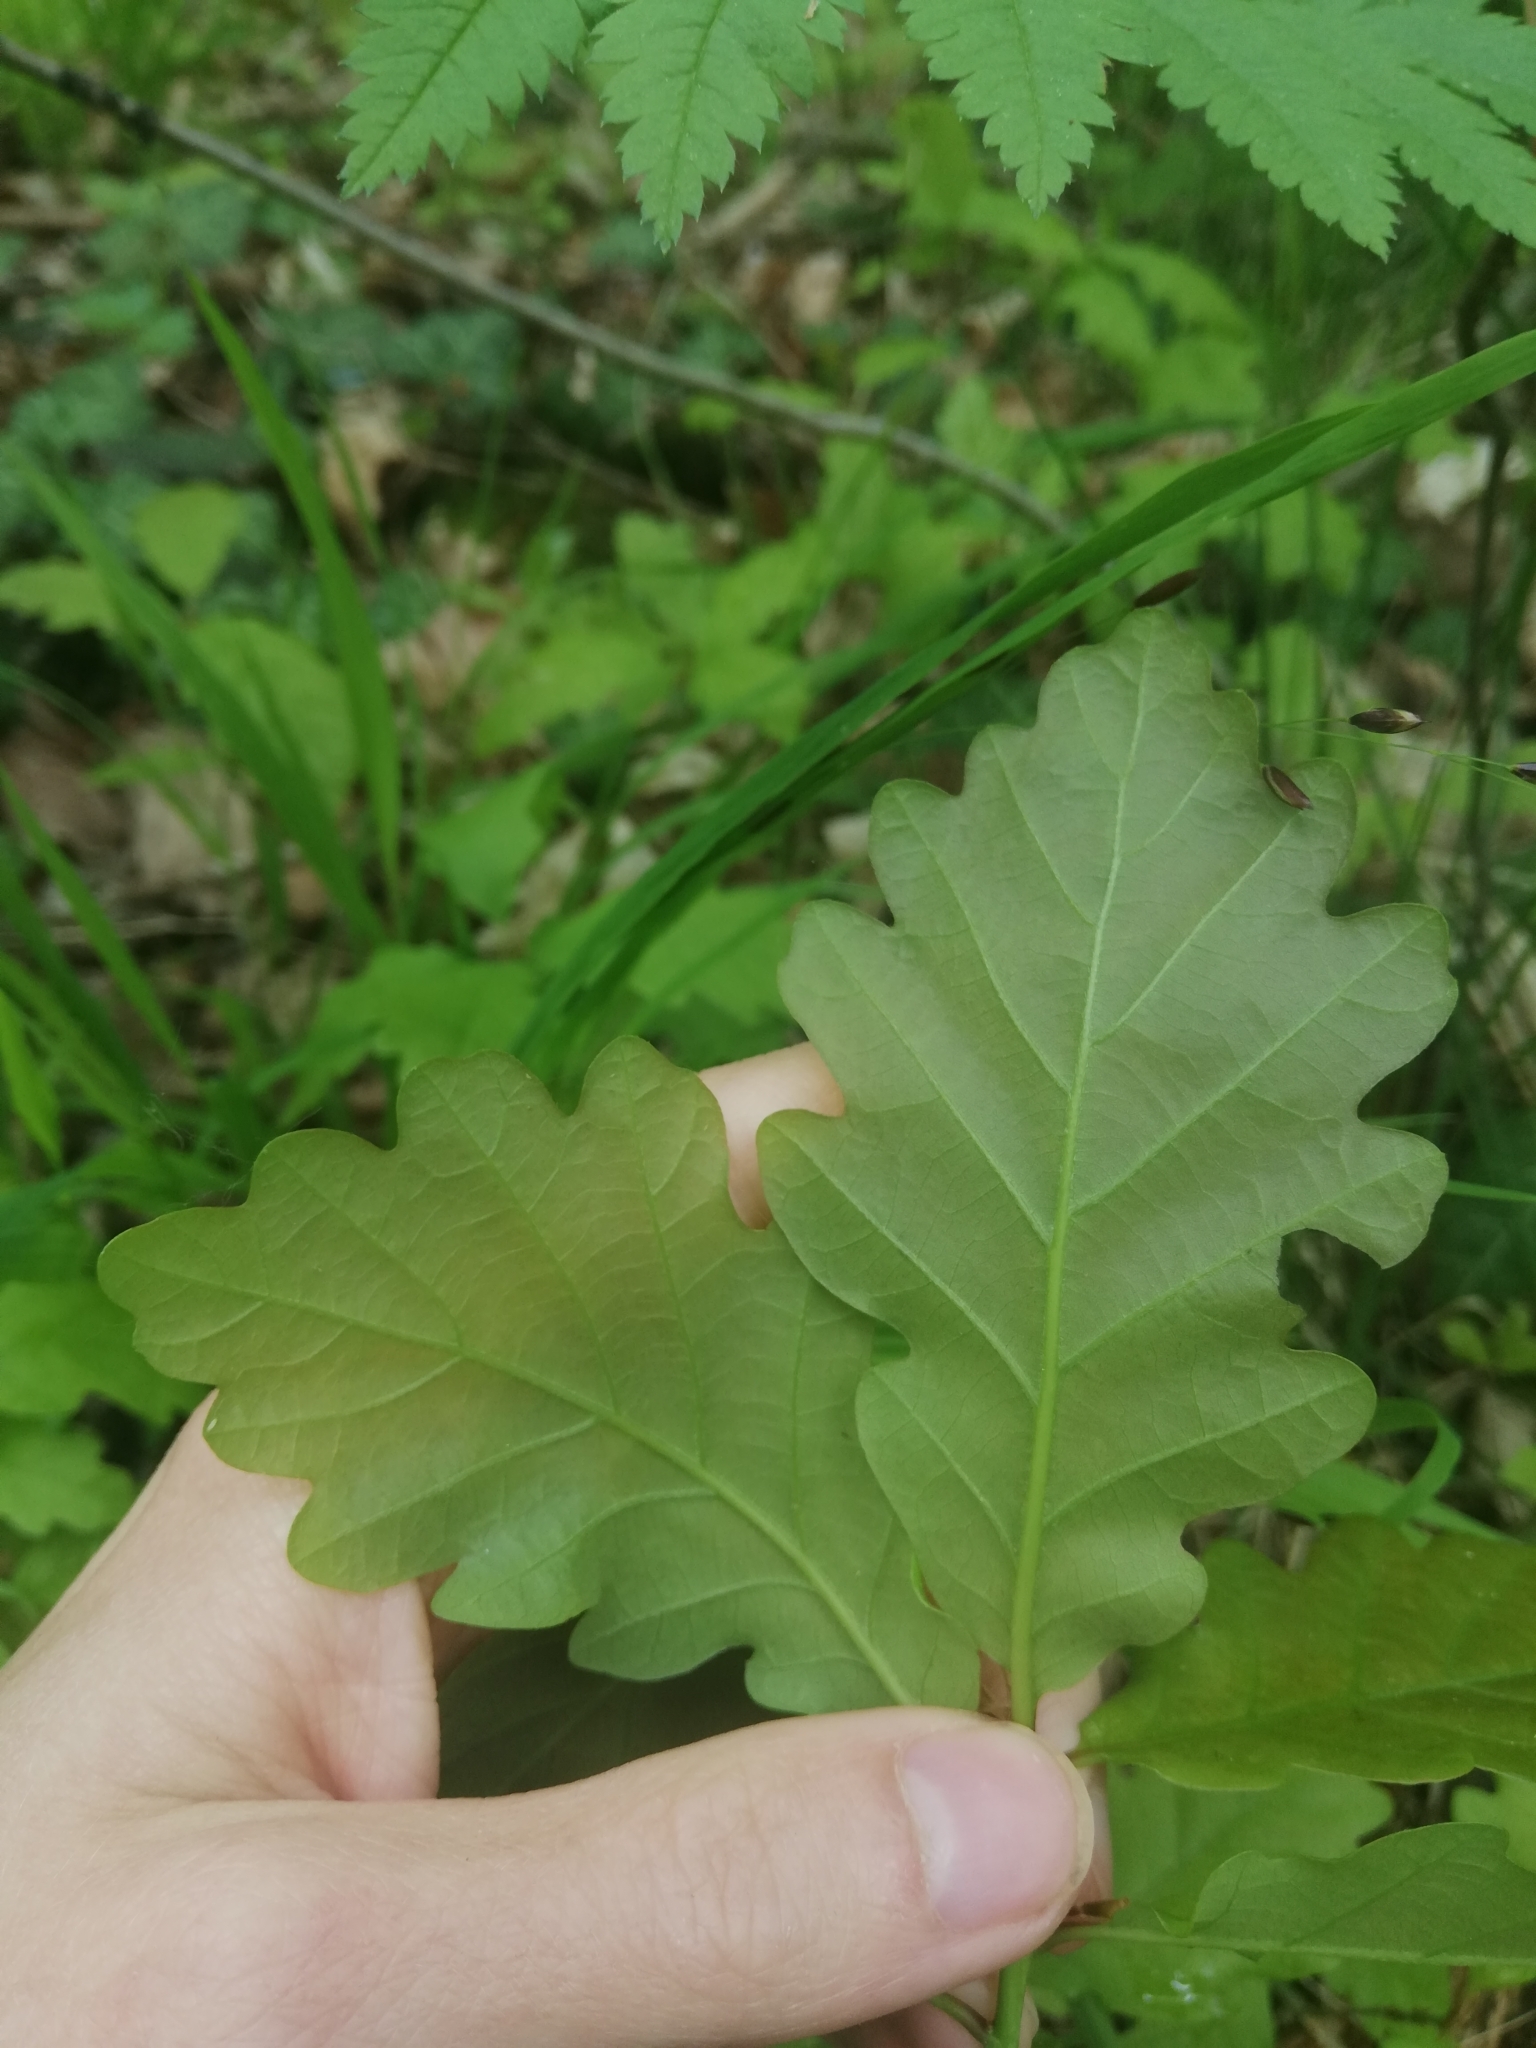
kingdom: Plantae
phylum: Tracheophyta
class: Magnoliopsida
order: Fagales
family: Fagaceae
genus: Quercus
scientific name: Quercus petraea
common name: Sessile oak
